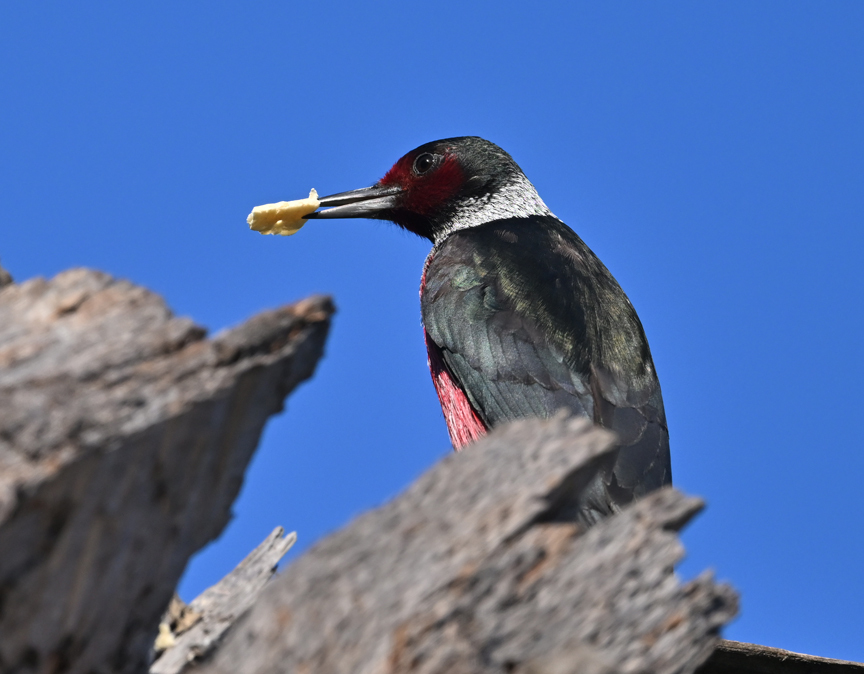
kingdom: Animalia
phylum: Chordata
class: Aves
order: Piciformes
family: Picidae
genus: Melanerpes
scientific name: Melanerpes lewis
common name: Lewis's woodpecker
